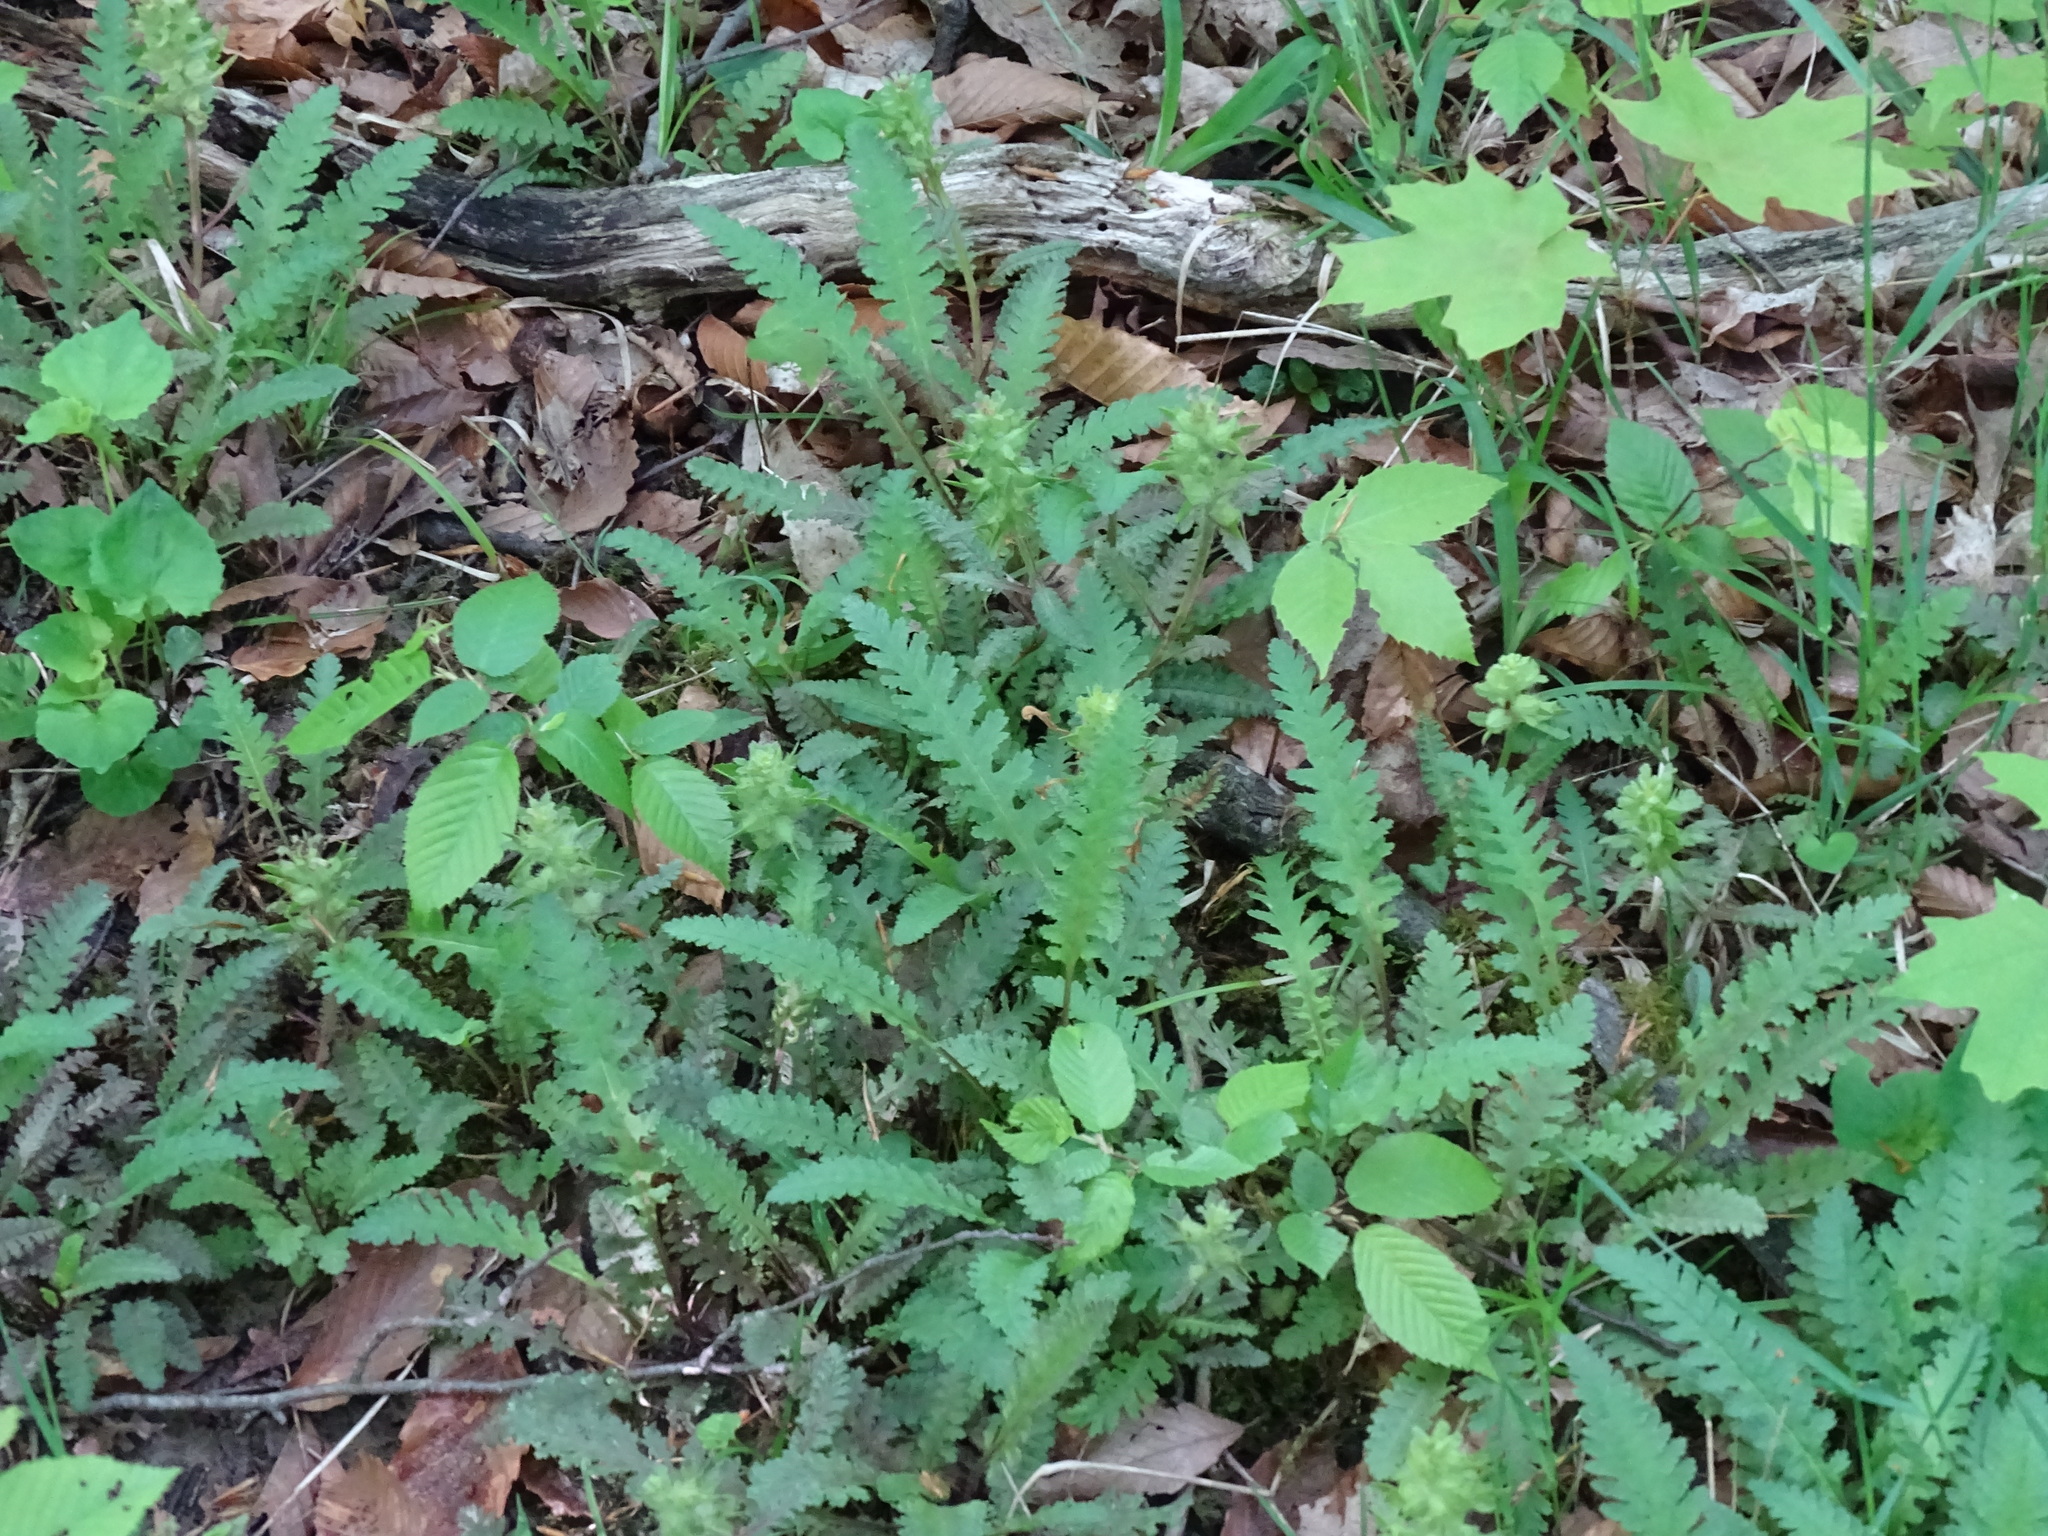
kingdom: Plantae
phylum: Tracheophyta
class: Magnoliopsida
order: Lamiales
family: Orobanchaceae
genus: Pedicularis
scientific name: Pedicularis canadensis
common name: Early lousewort
